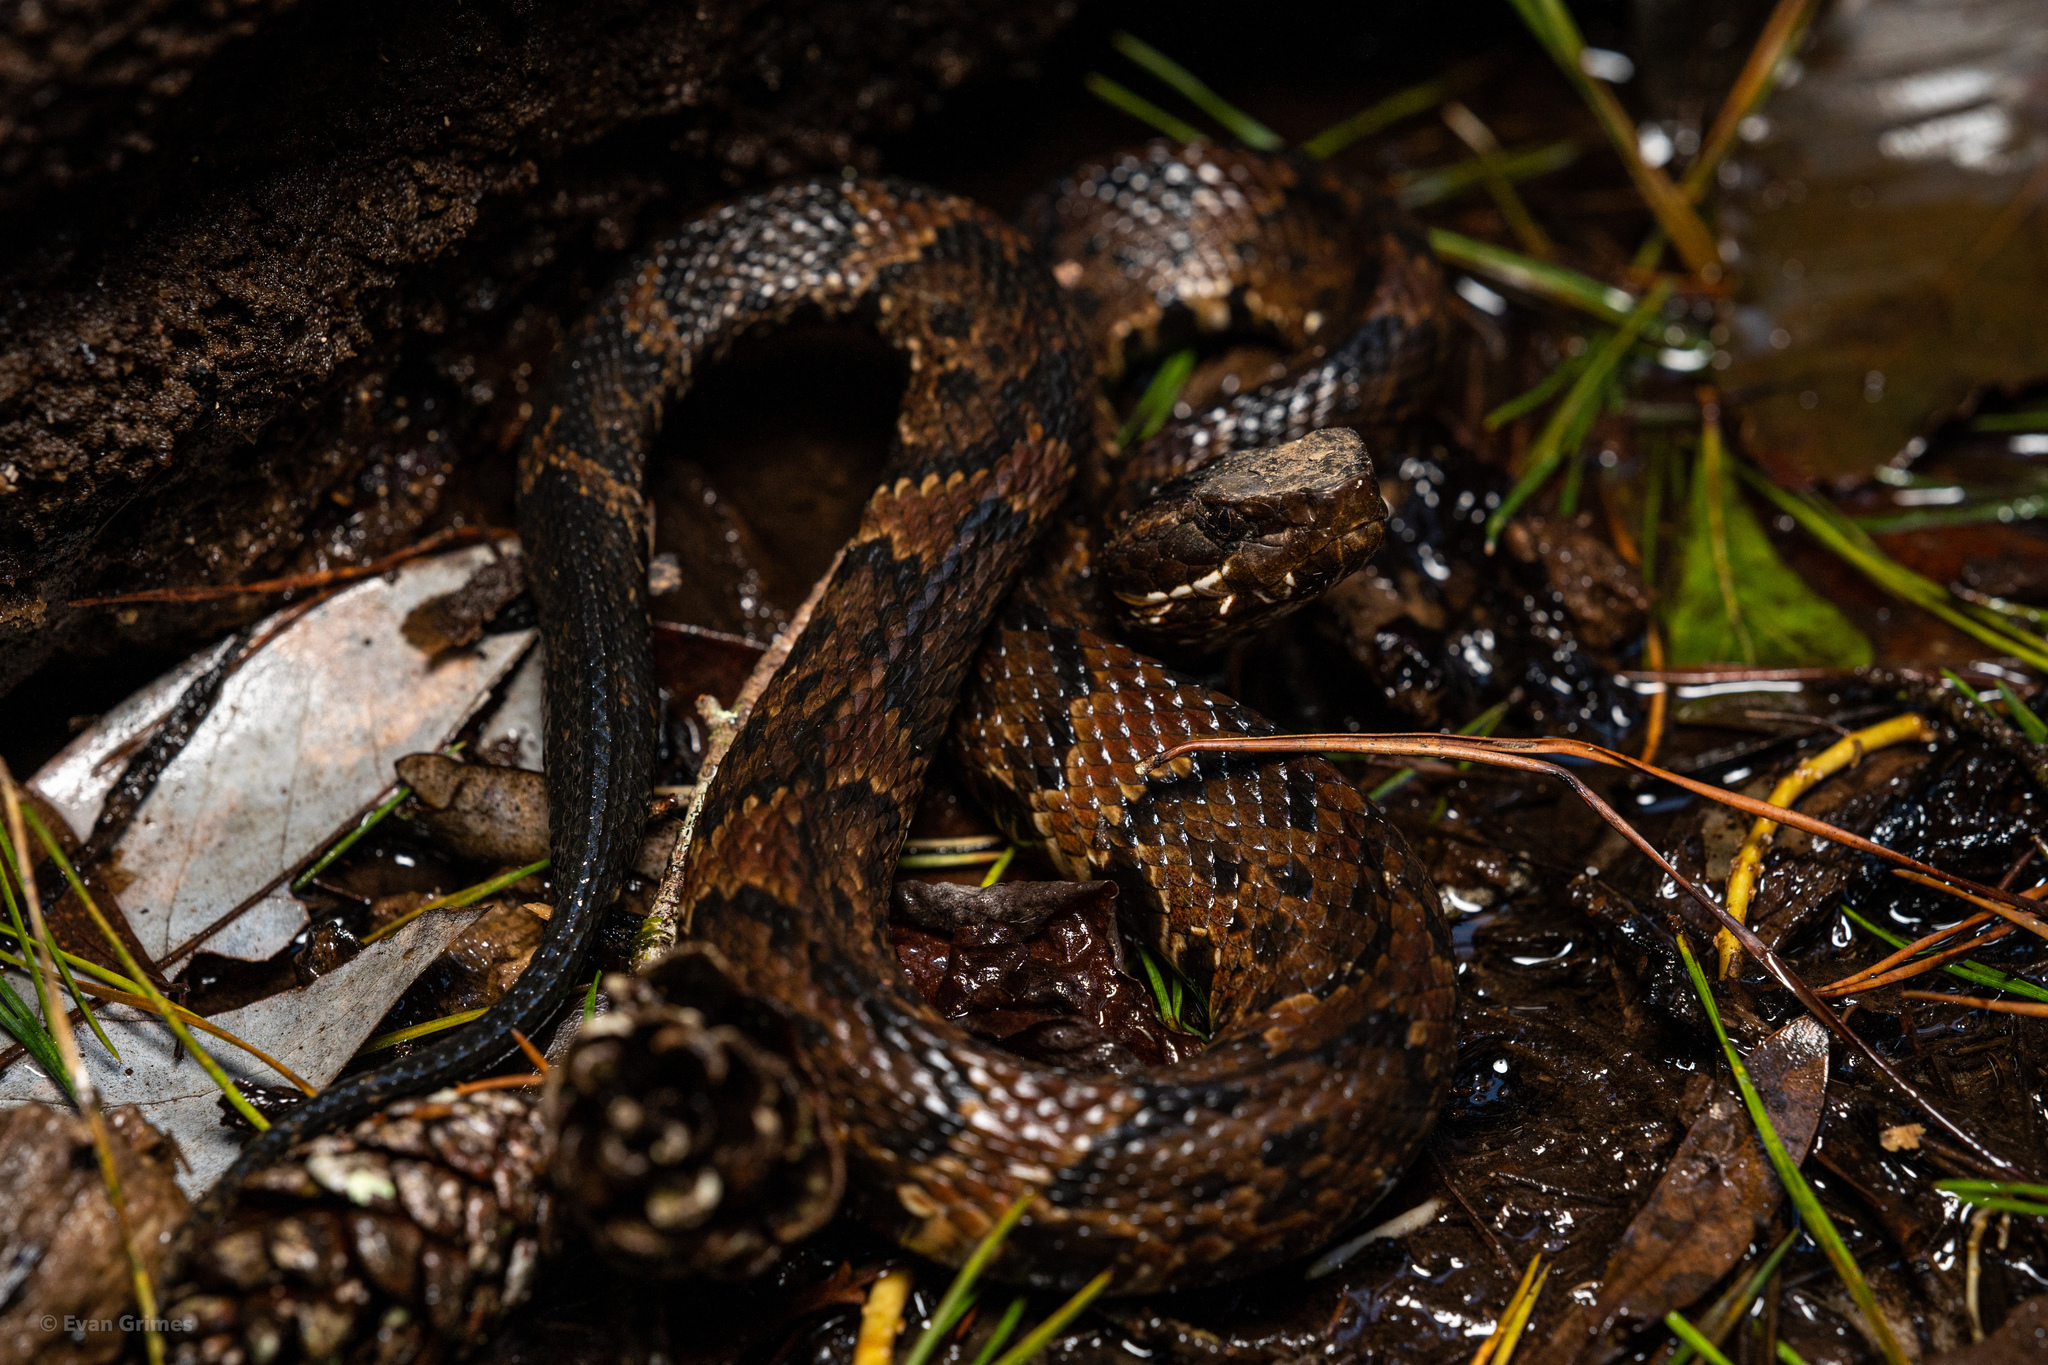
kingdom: Animalia
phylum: Chordata
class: Squamata
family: Viperidae
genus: Agkistrodon
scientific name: Agkistrodon piscivorus
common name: Cottonmouth
